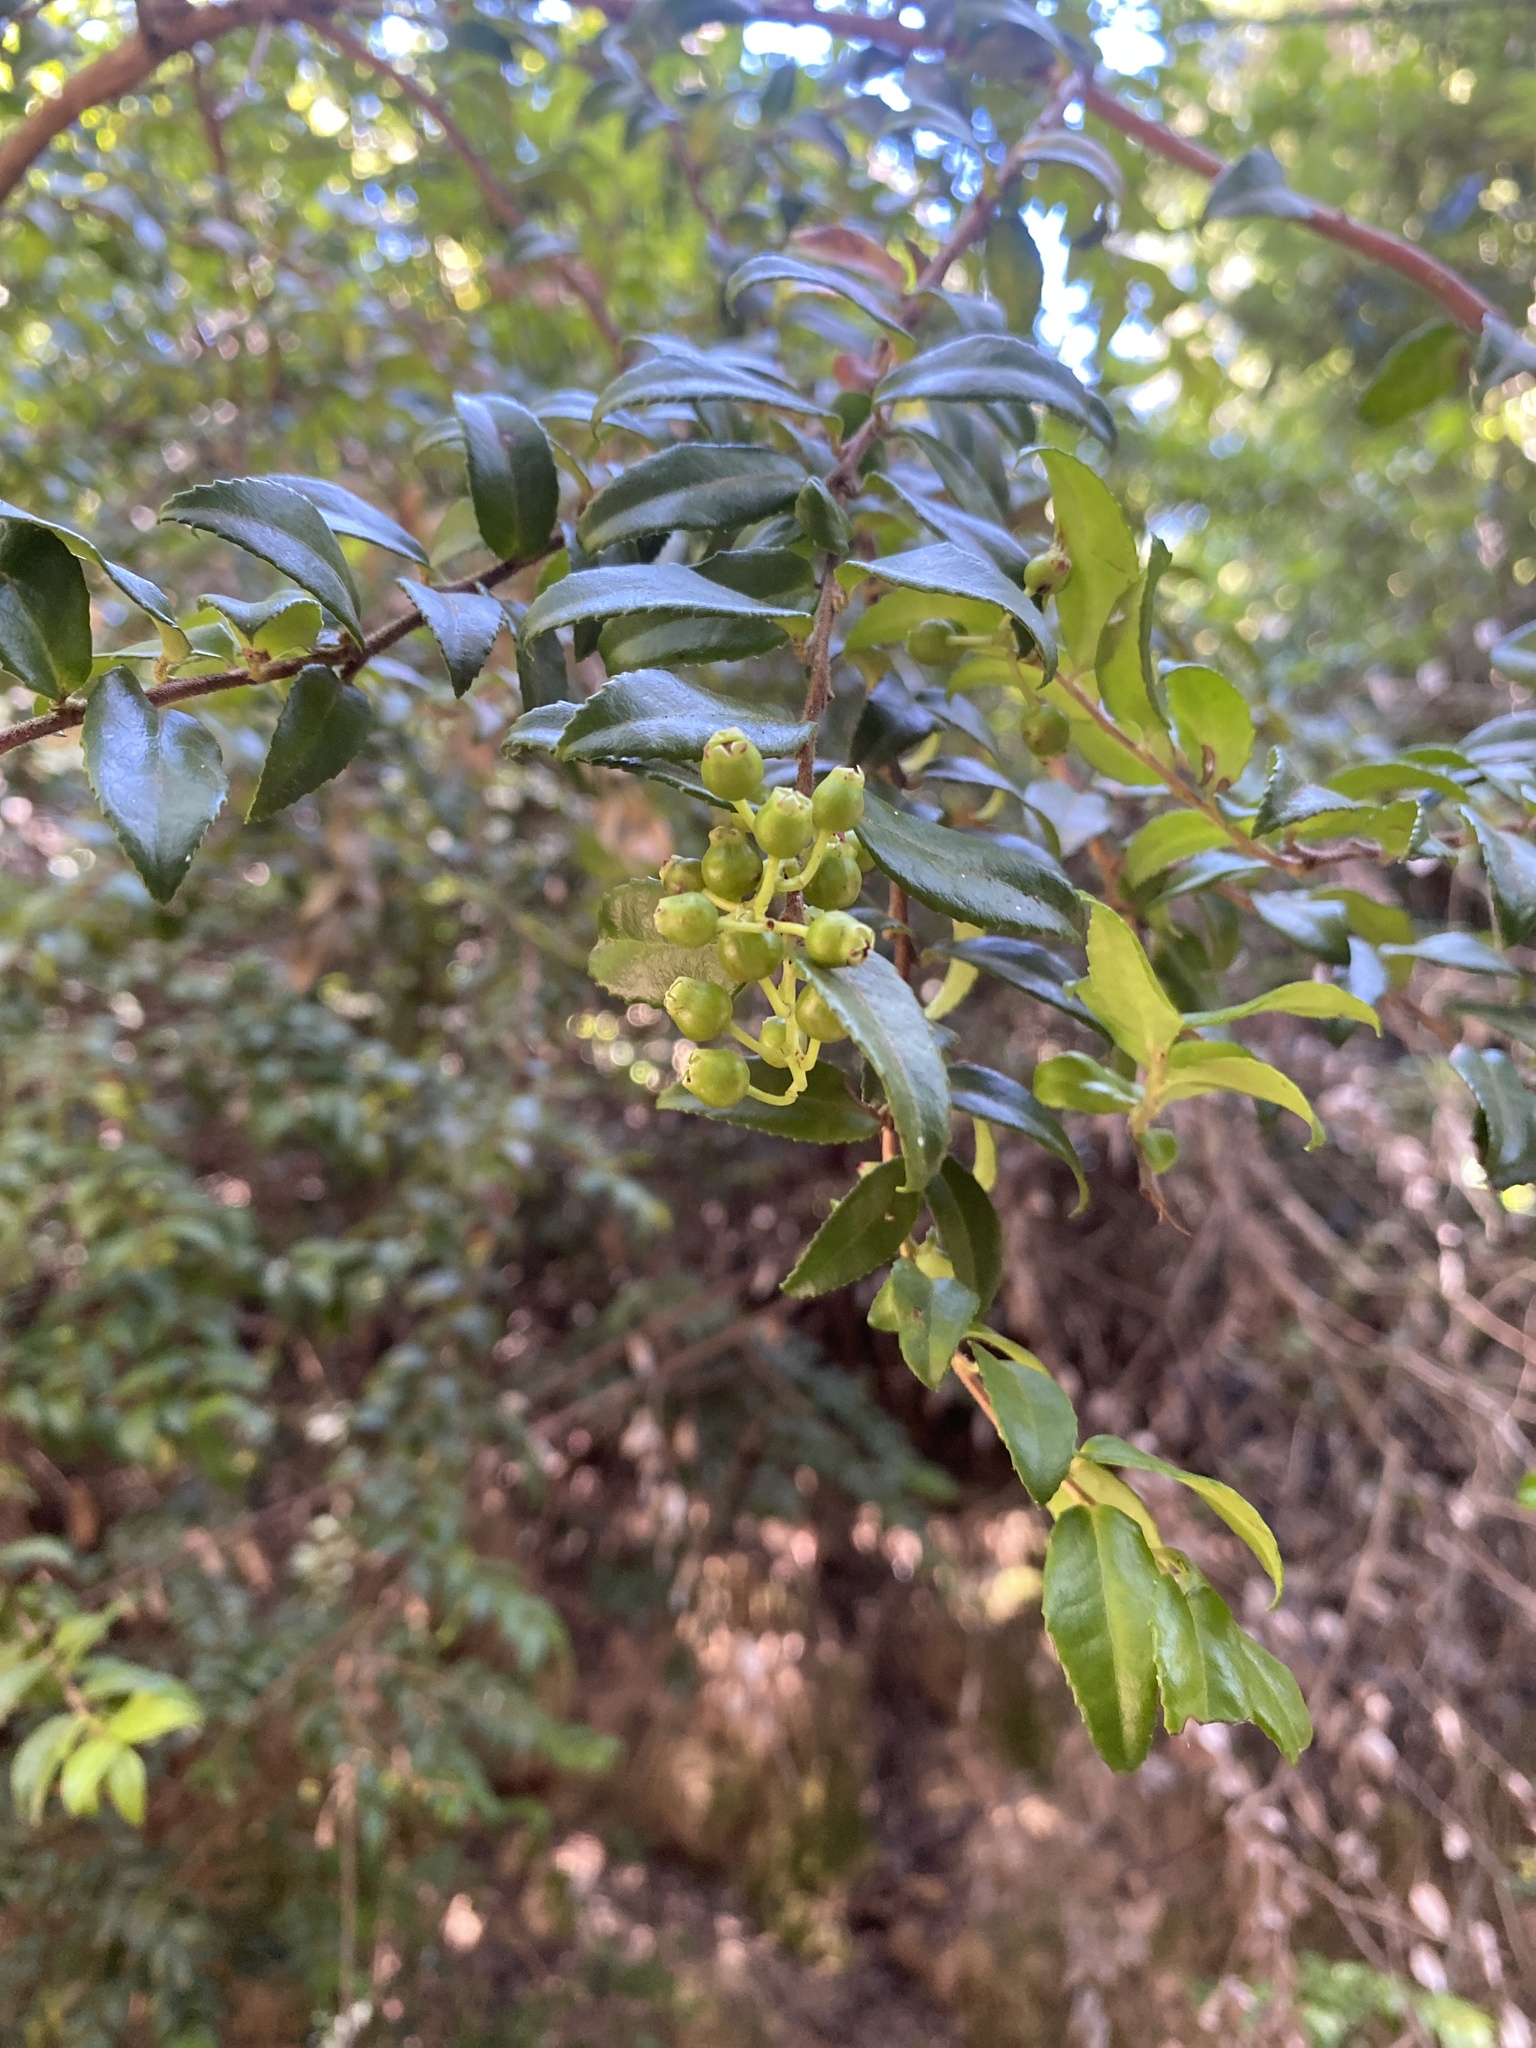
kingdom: Plantae
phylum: Tracheophyta
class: Magnoliopsida
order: Ericales
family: Ericaceae
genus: Vaccinium
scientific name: Vaccinium ovatum
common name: California-huckleberry
